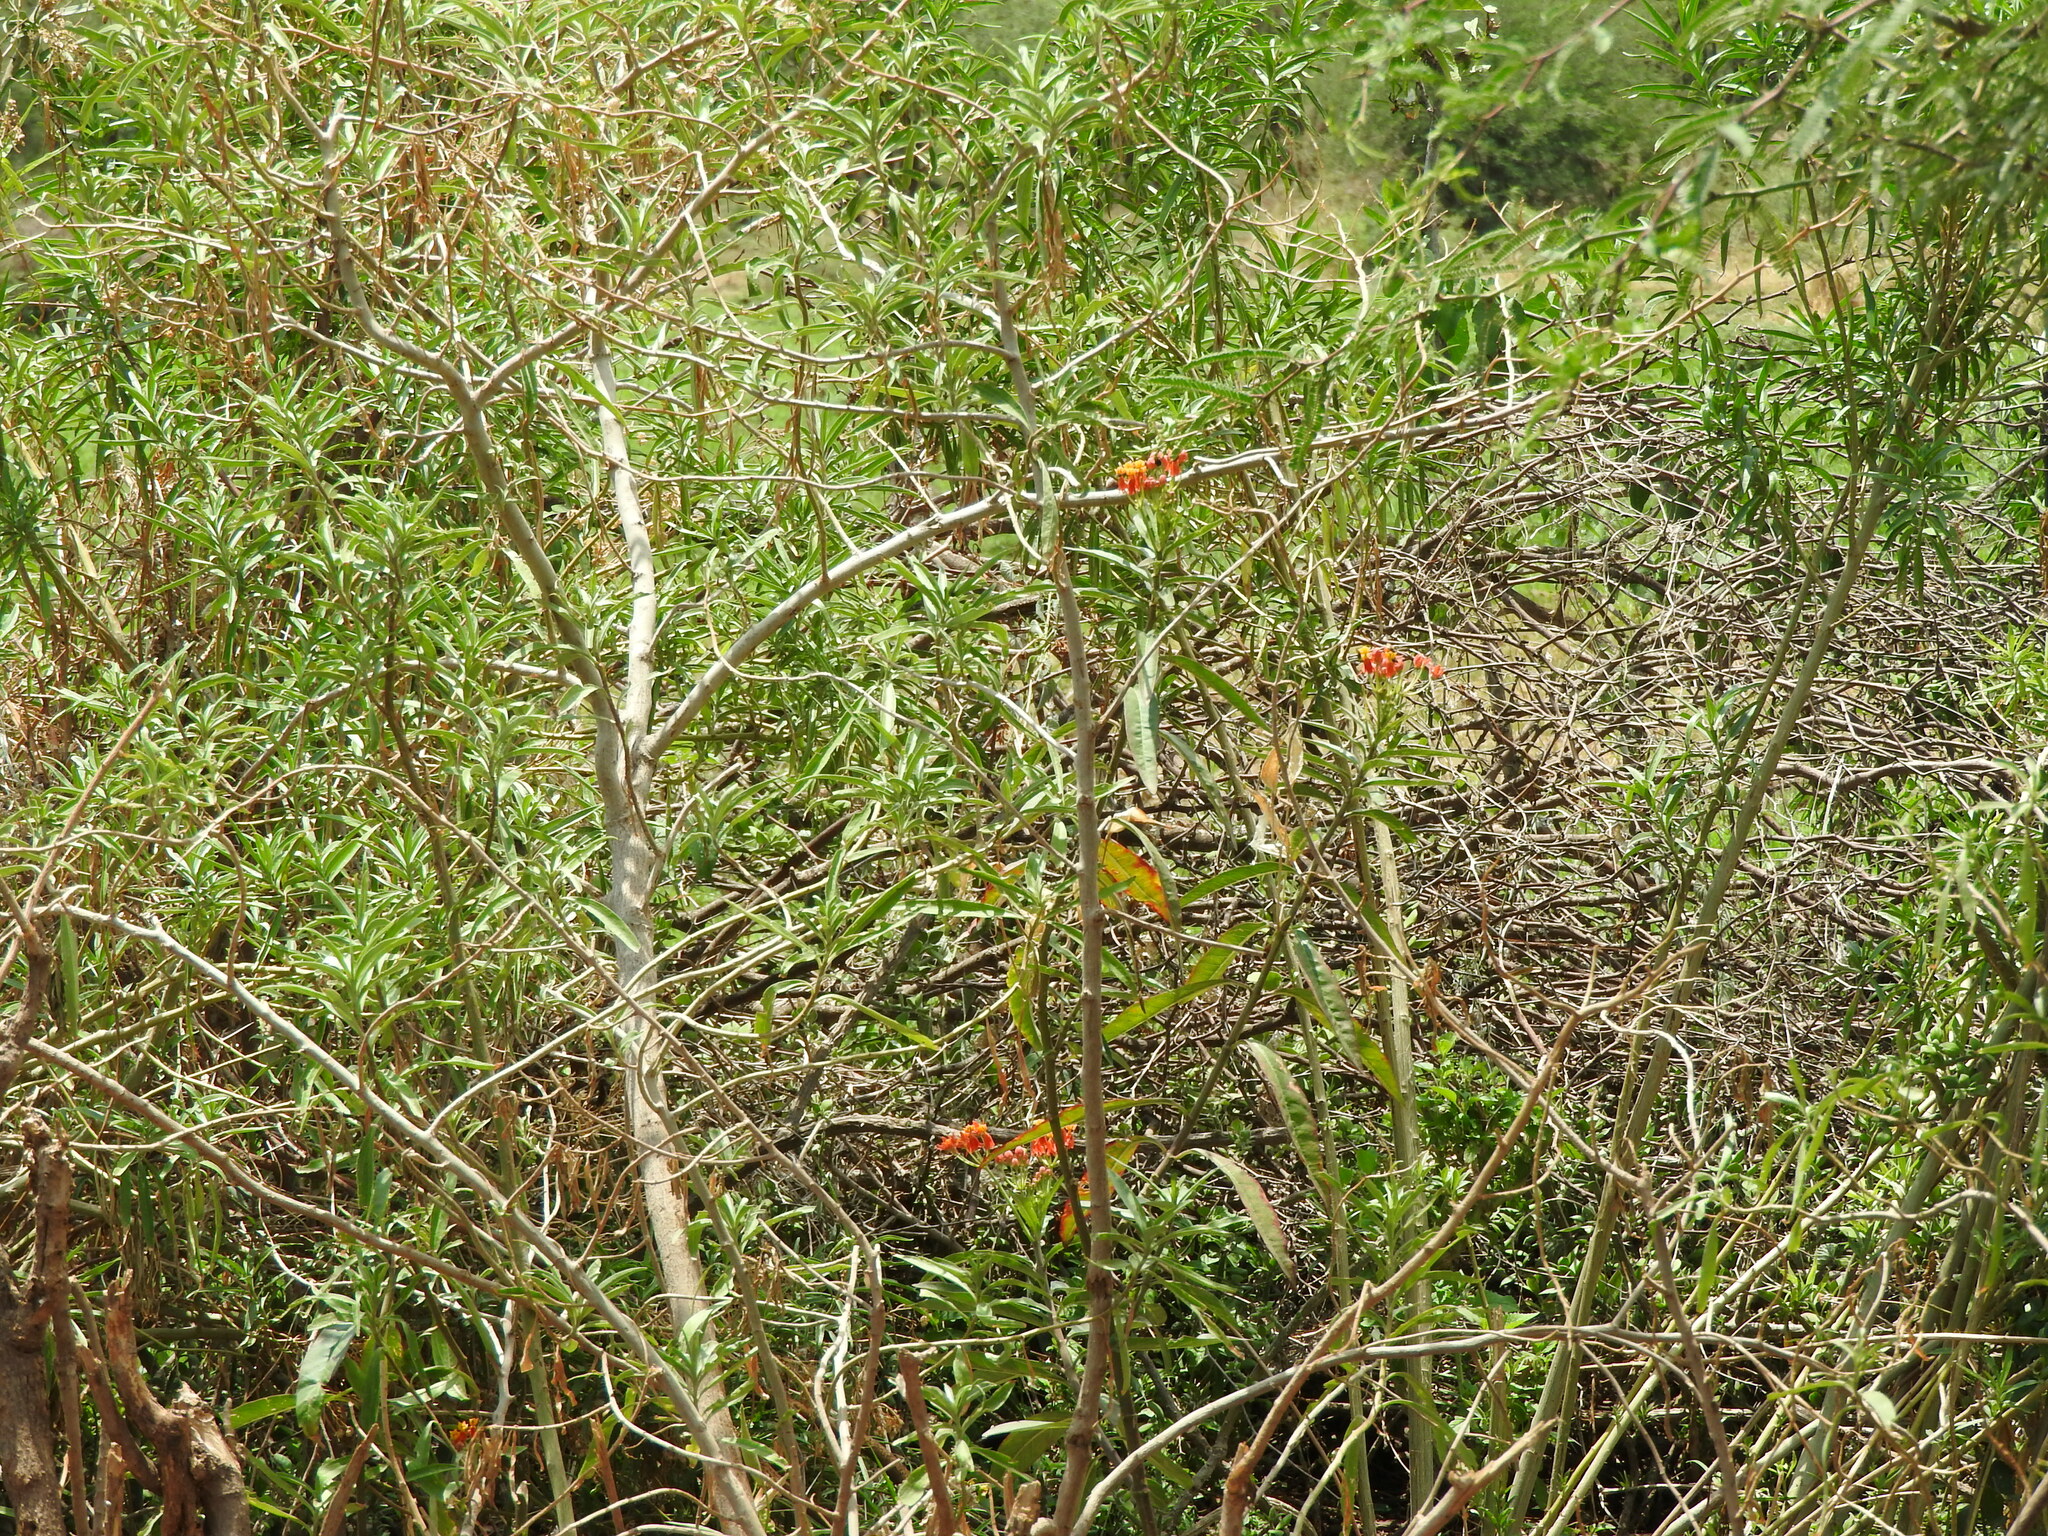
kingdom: Plantae
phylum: Tracheophyta
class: Magnoliopsida
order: Gentianales
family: Apocynaceae
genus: Asclepias
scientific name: Asclepias curassavica
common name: Bloodflower
